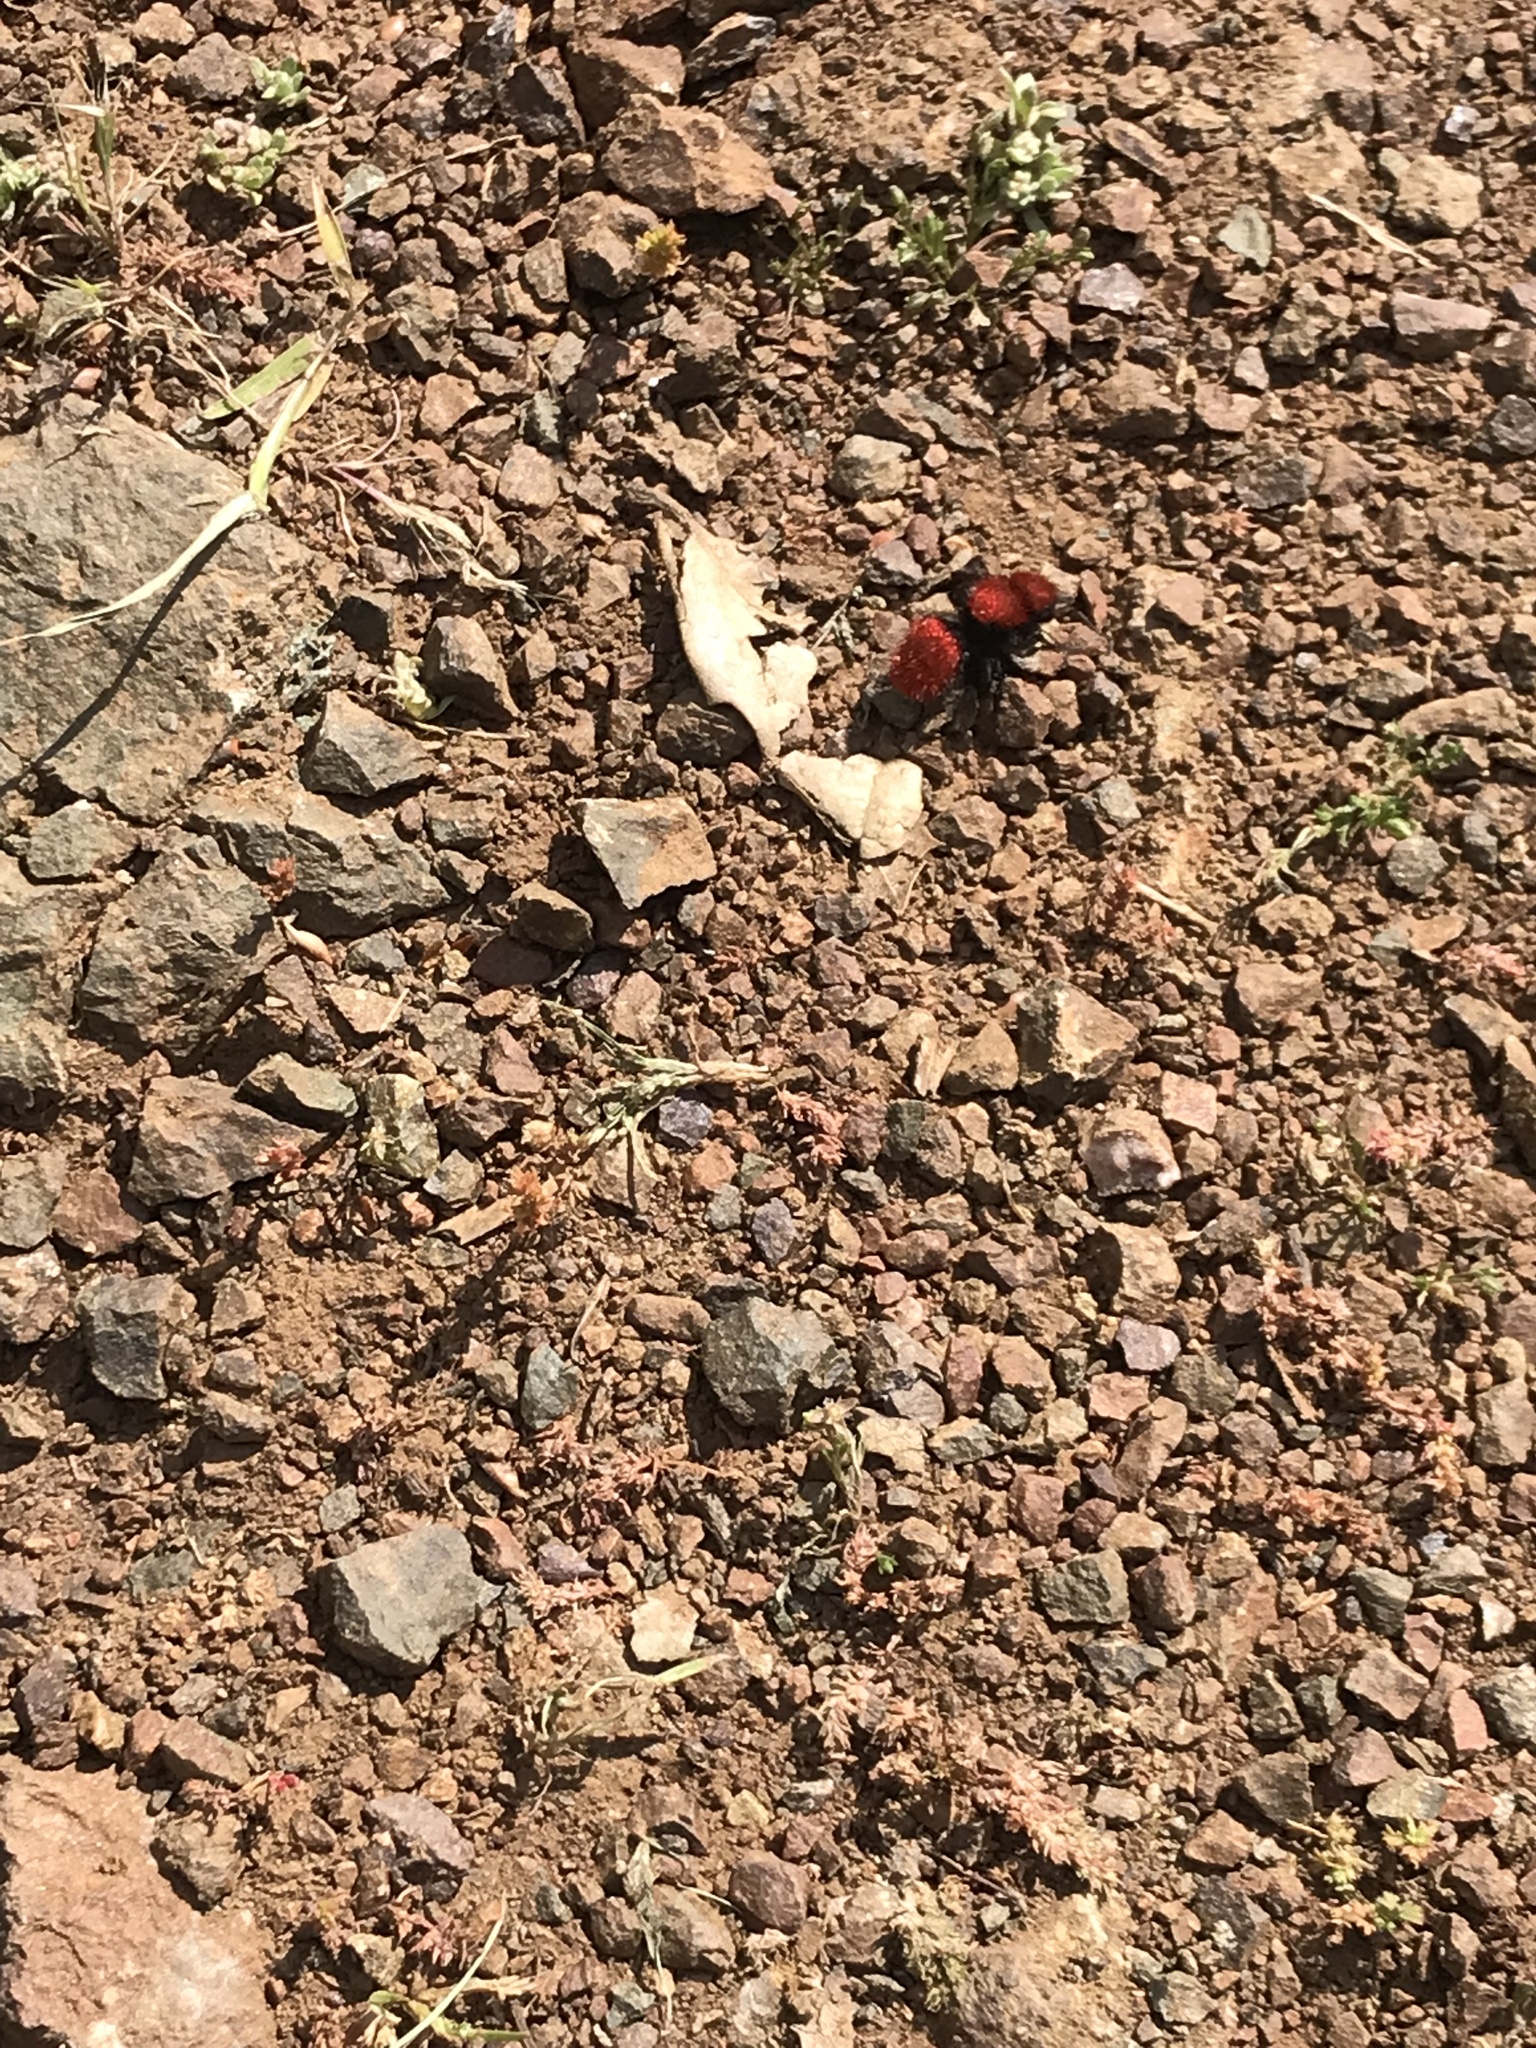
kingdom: Animalia
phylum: Arthropoda
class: Insecta
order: Hymenoptera
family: Mutillidae
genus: Dasymutilla
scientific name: Dasymutilla
